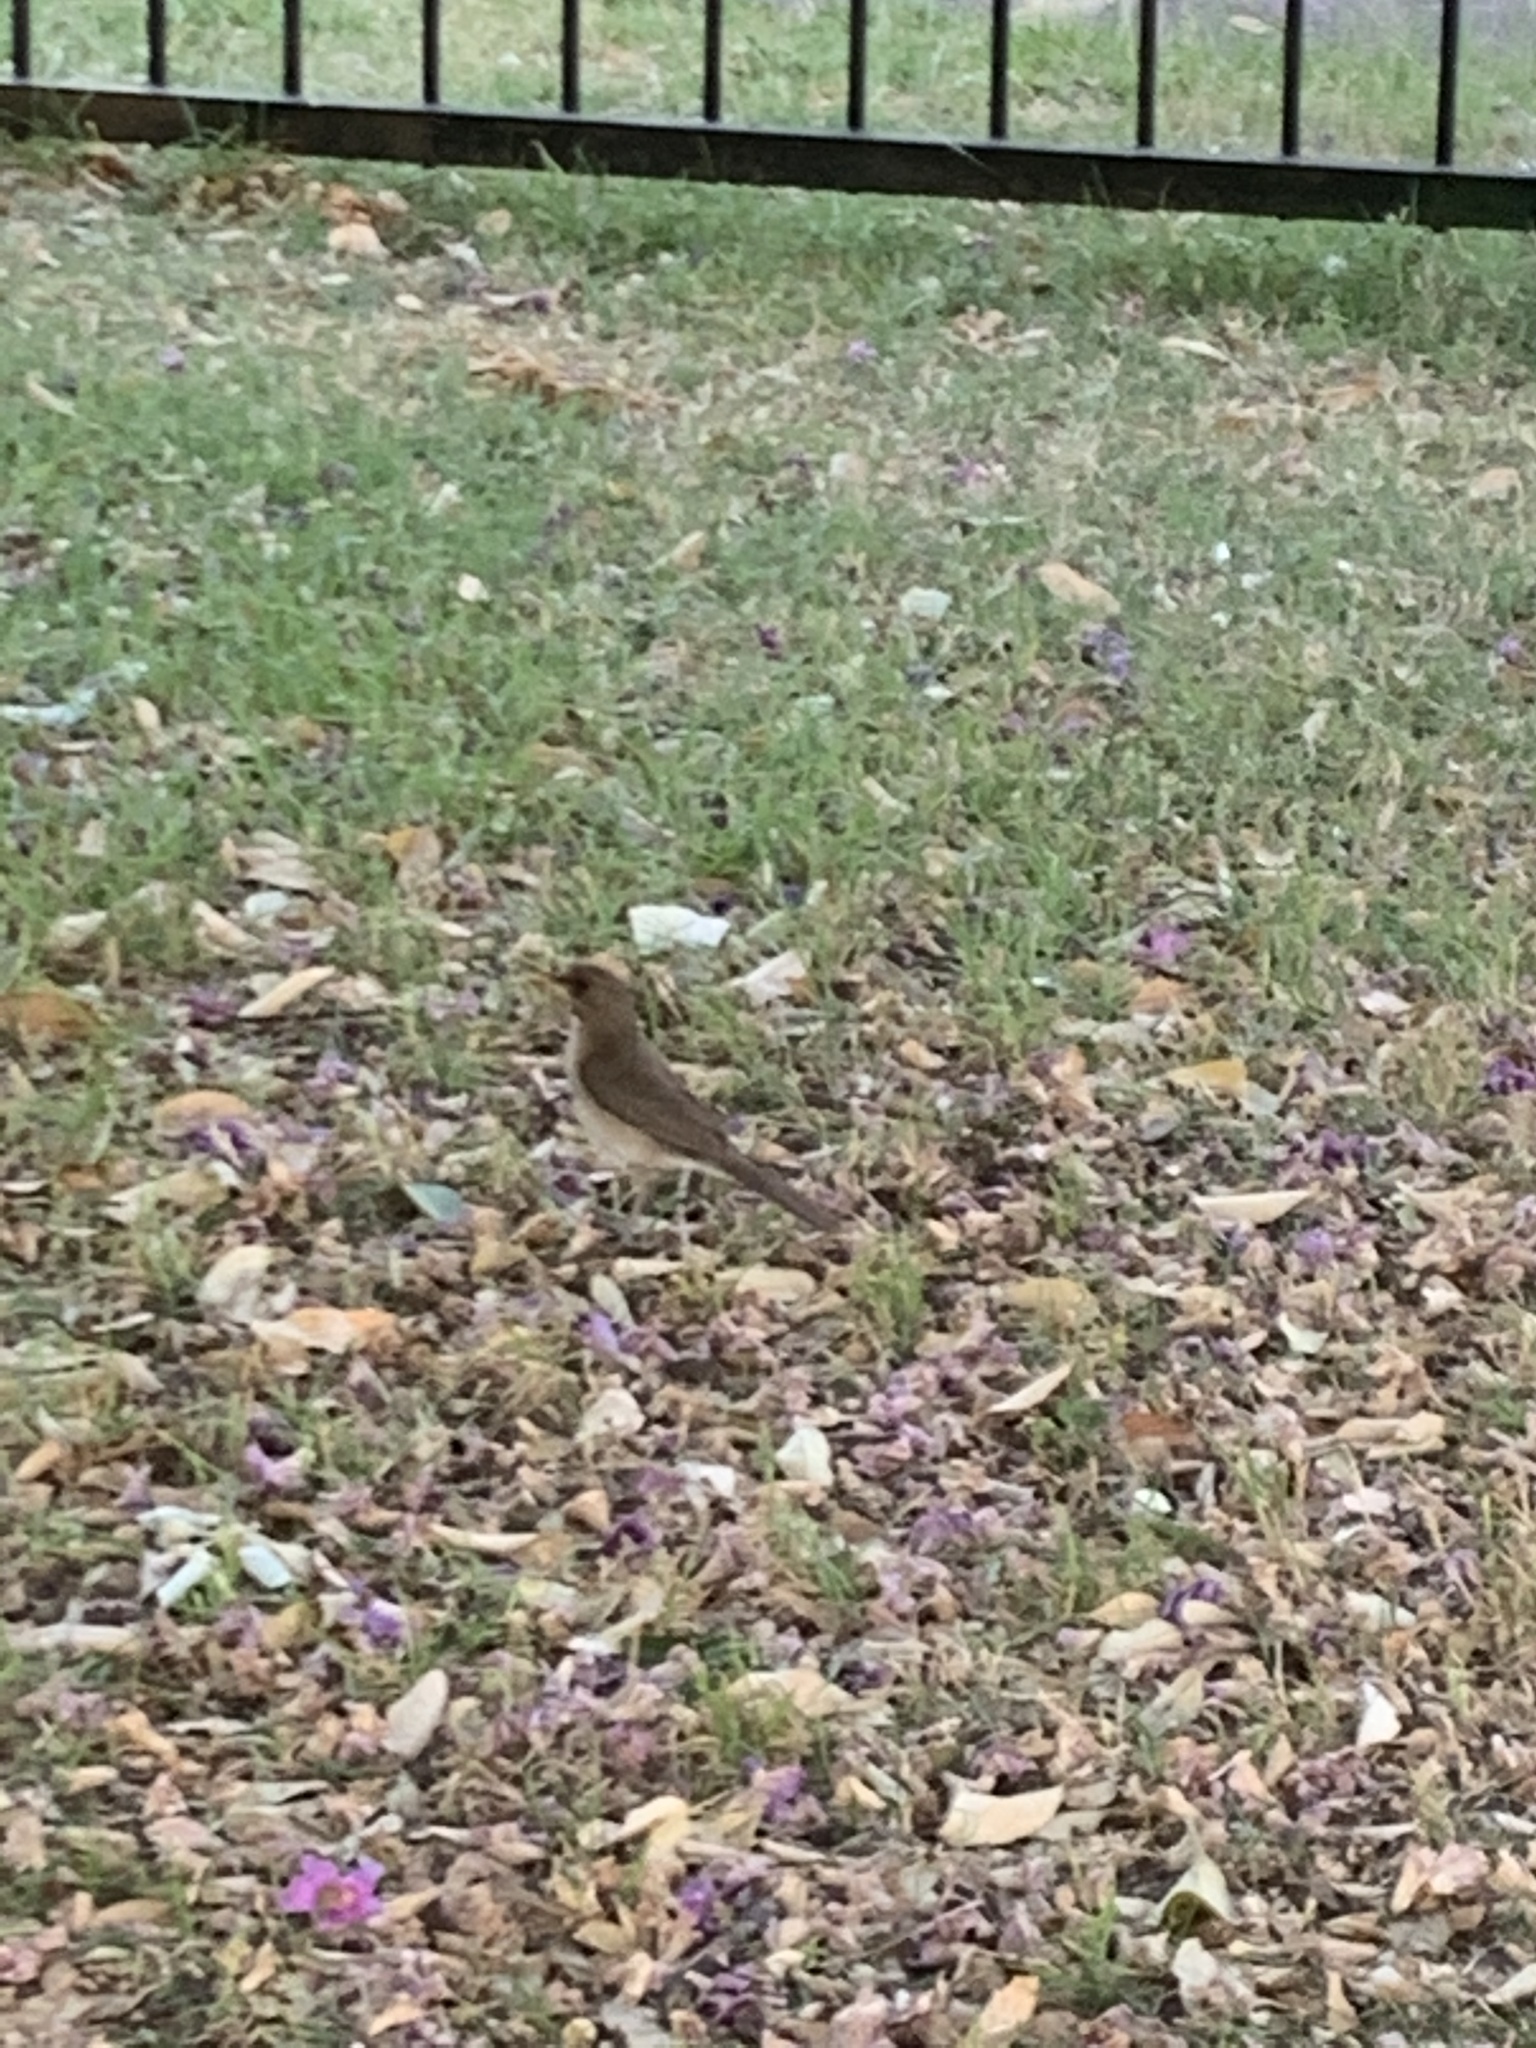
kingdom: Animalia
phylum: Chordata
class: Aves
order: Passeriformes
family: Turdidae
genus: Turdus
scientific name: Turdus amaurochalinus
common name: Creamy-bellied thrush
